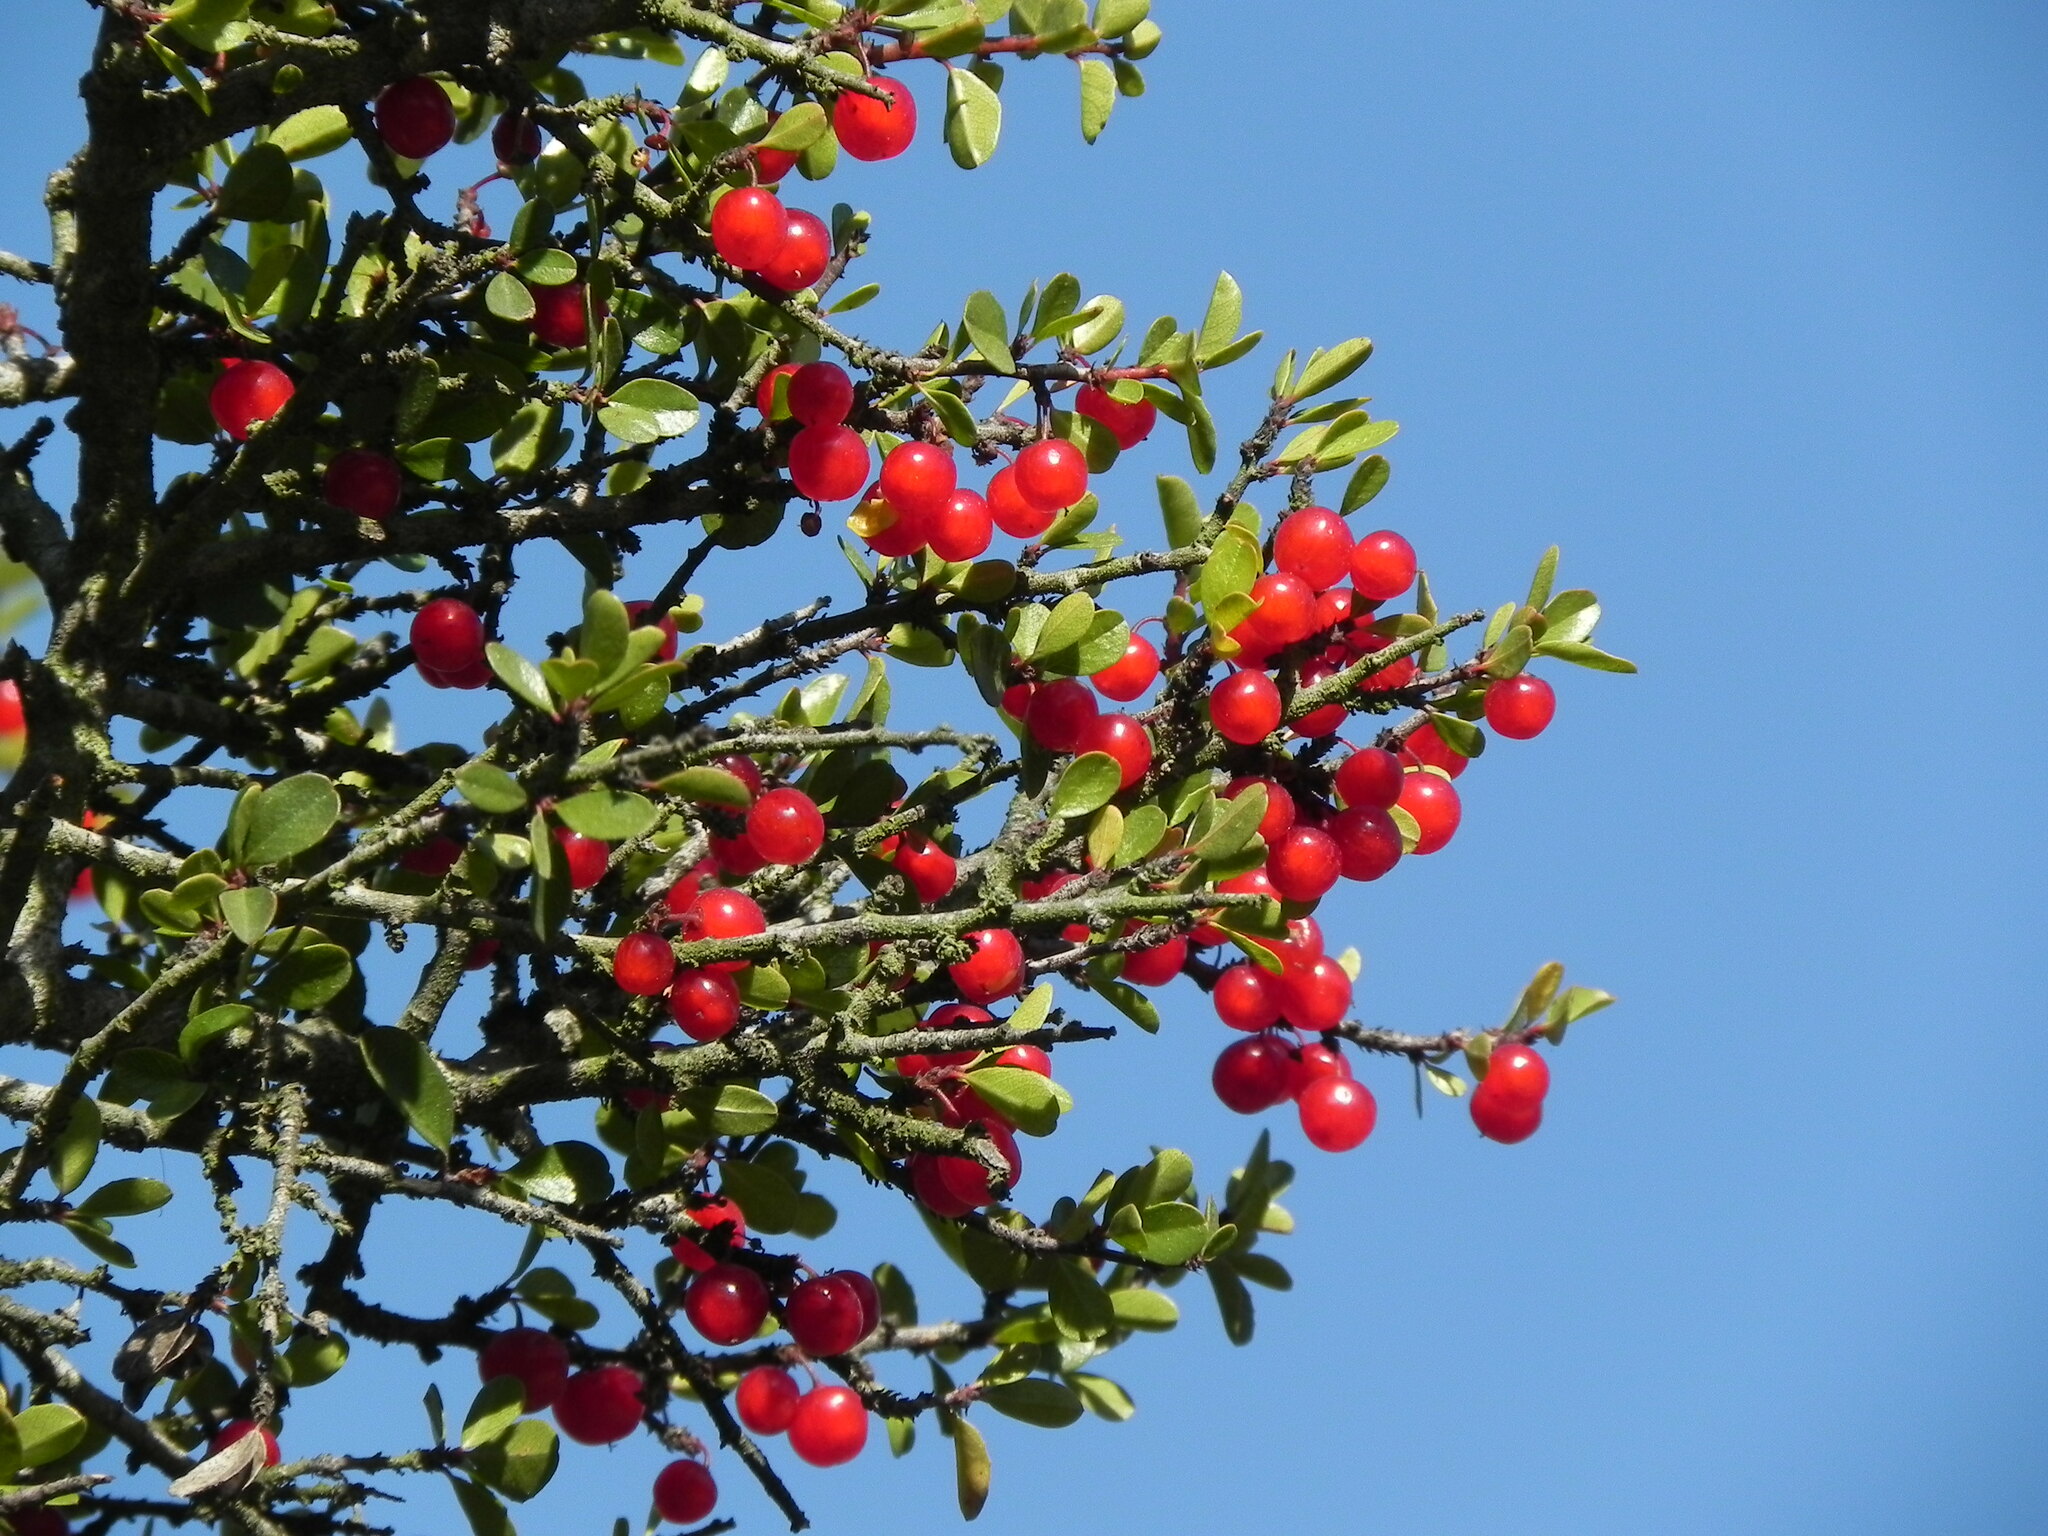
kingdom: Plantae
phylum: Tracheophyta
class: Magnoliopsida
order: Rosales
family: Rhamnaceae
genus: Endotropis
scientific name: Endotropis crocea
